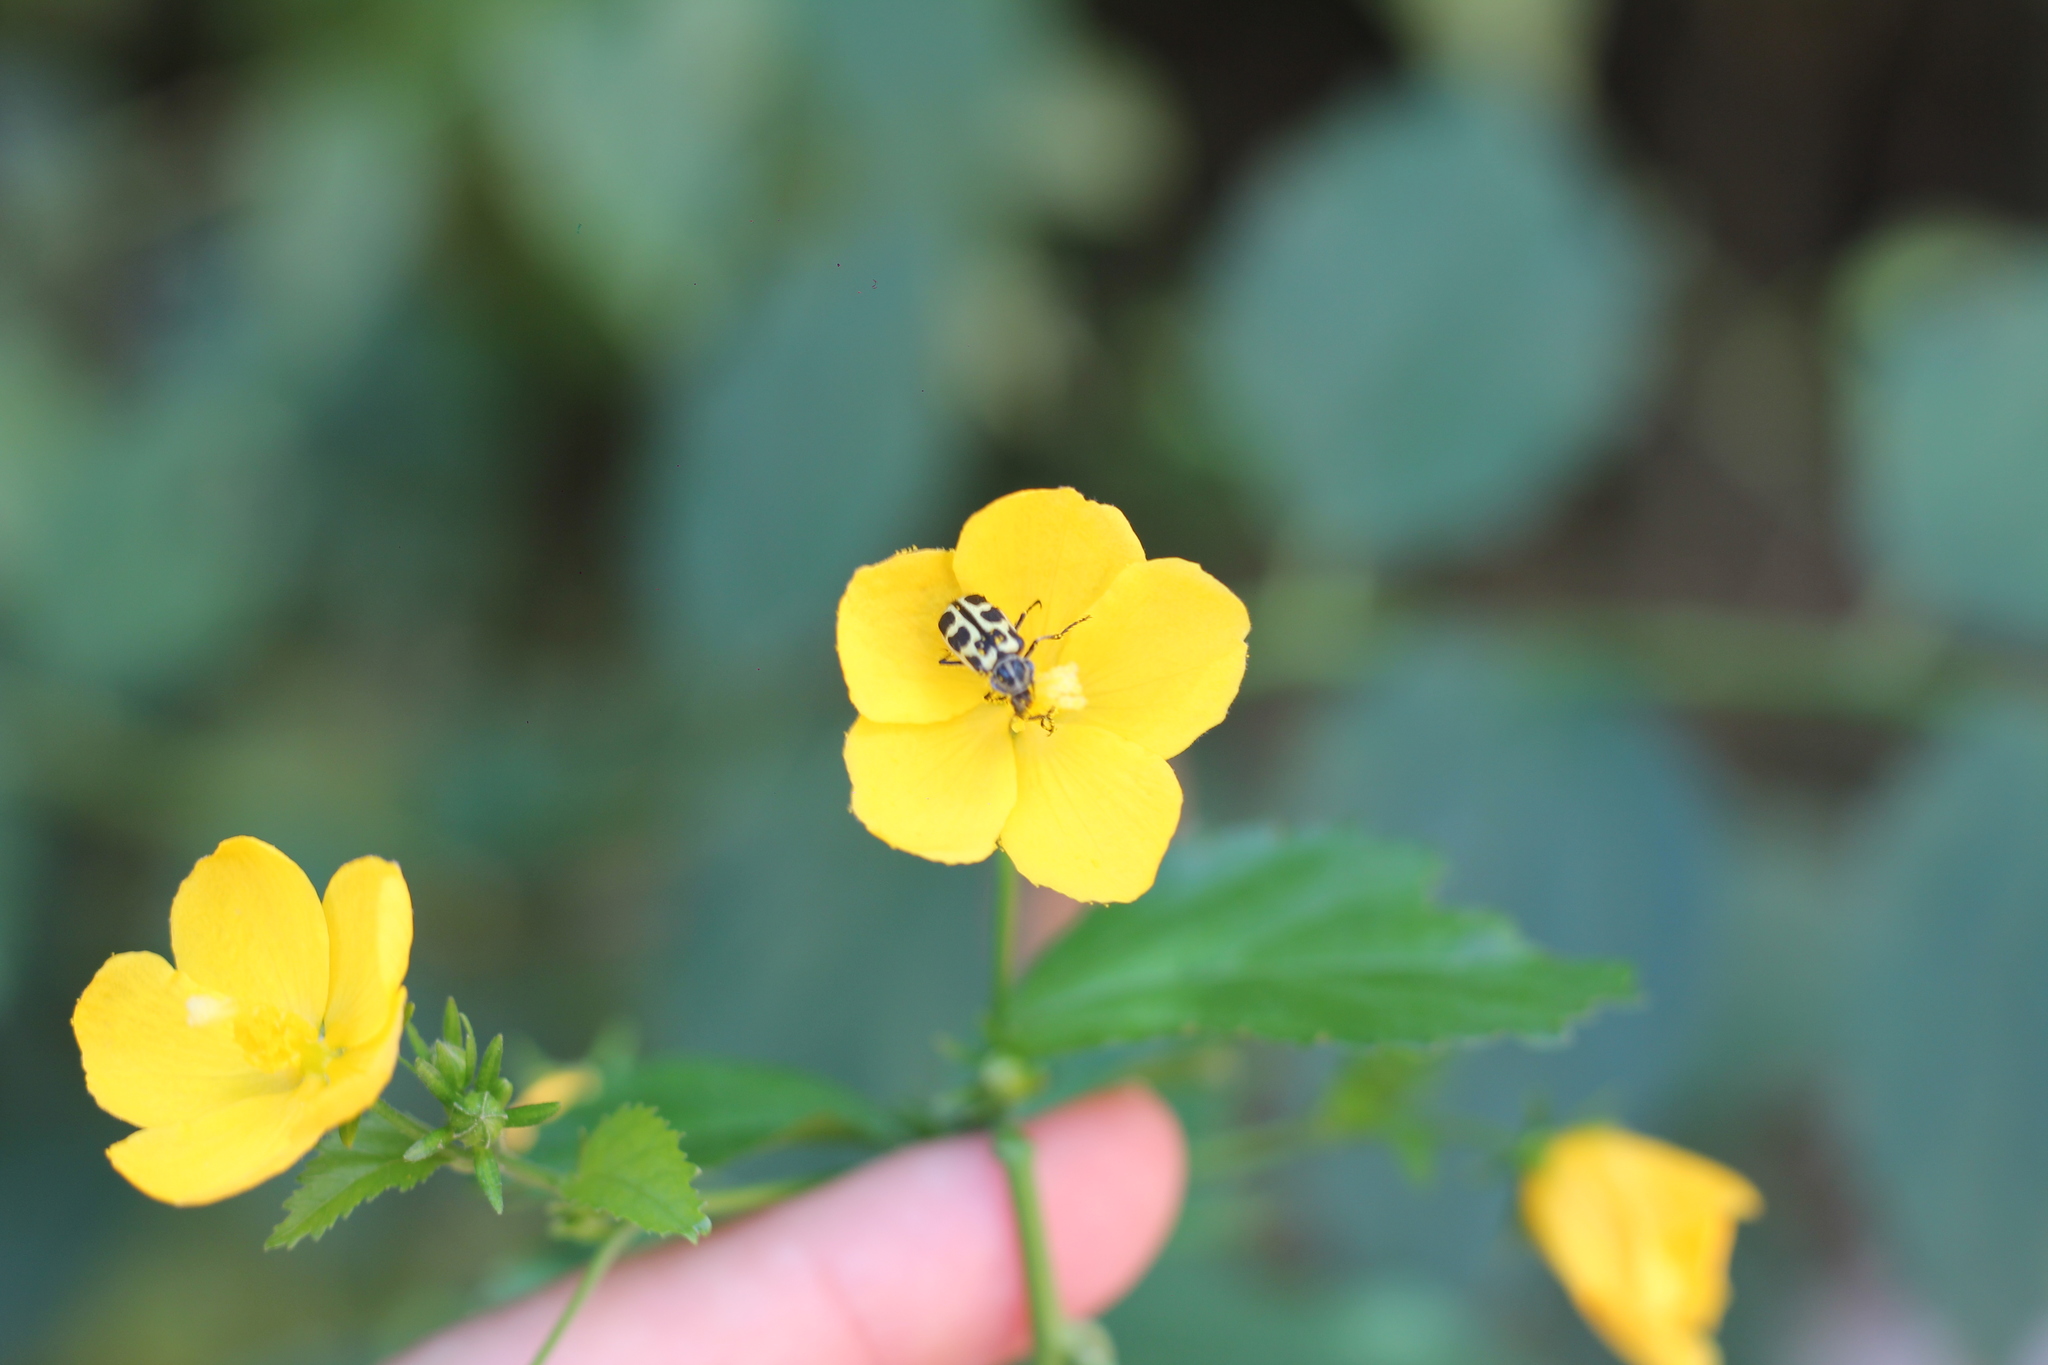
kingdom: Animalia
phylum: Arthropoda
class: Insecta
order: Coleoptera
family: Melyridae
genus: Astylus
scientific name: Astylus atromaculatus
